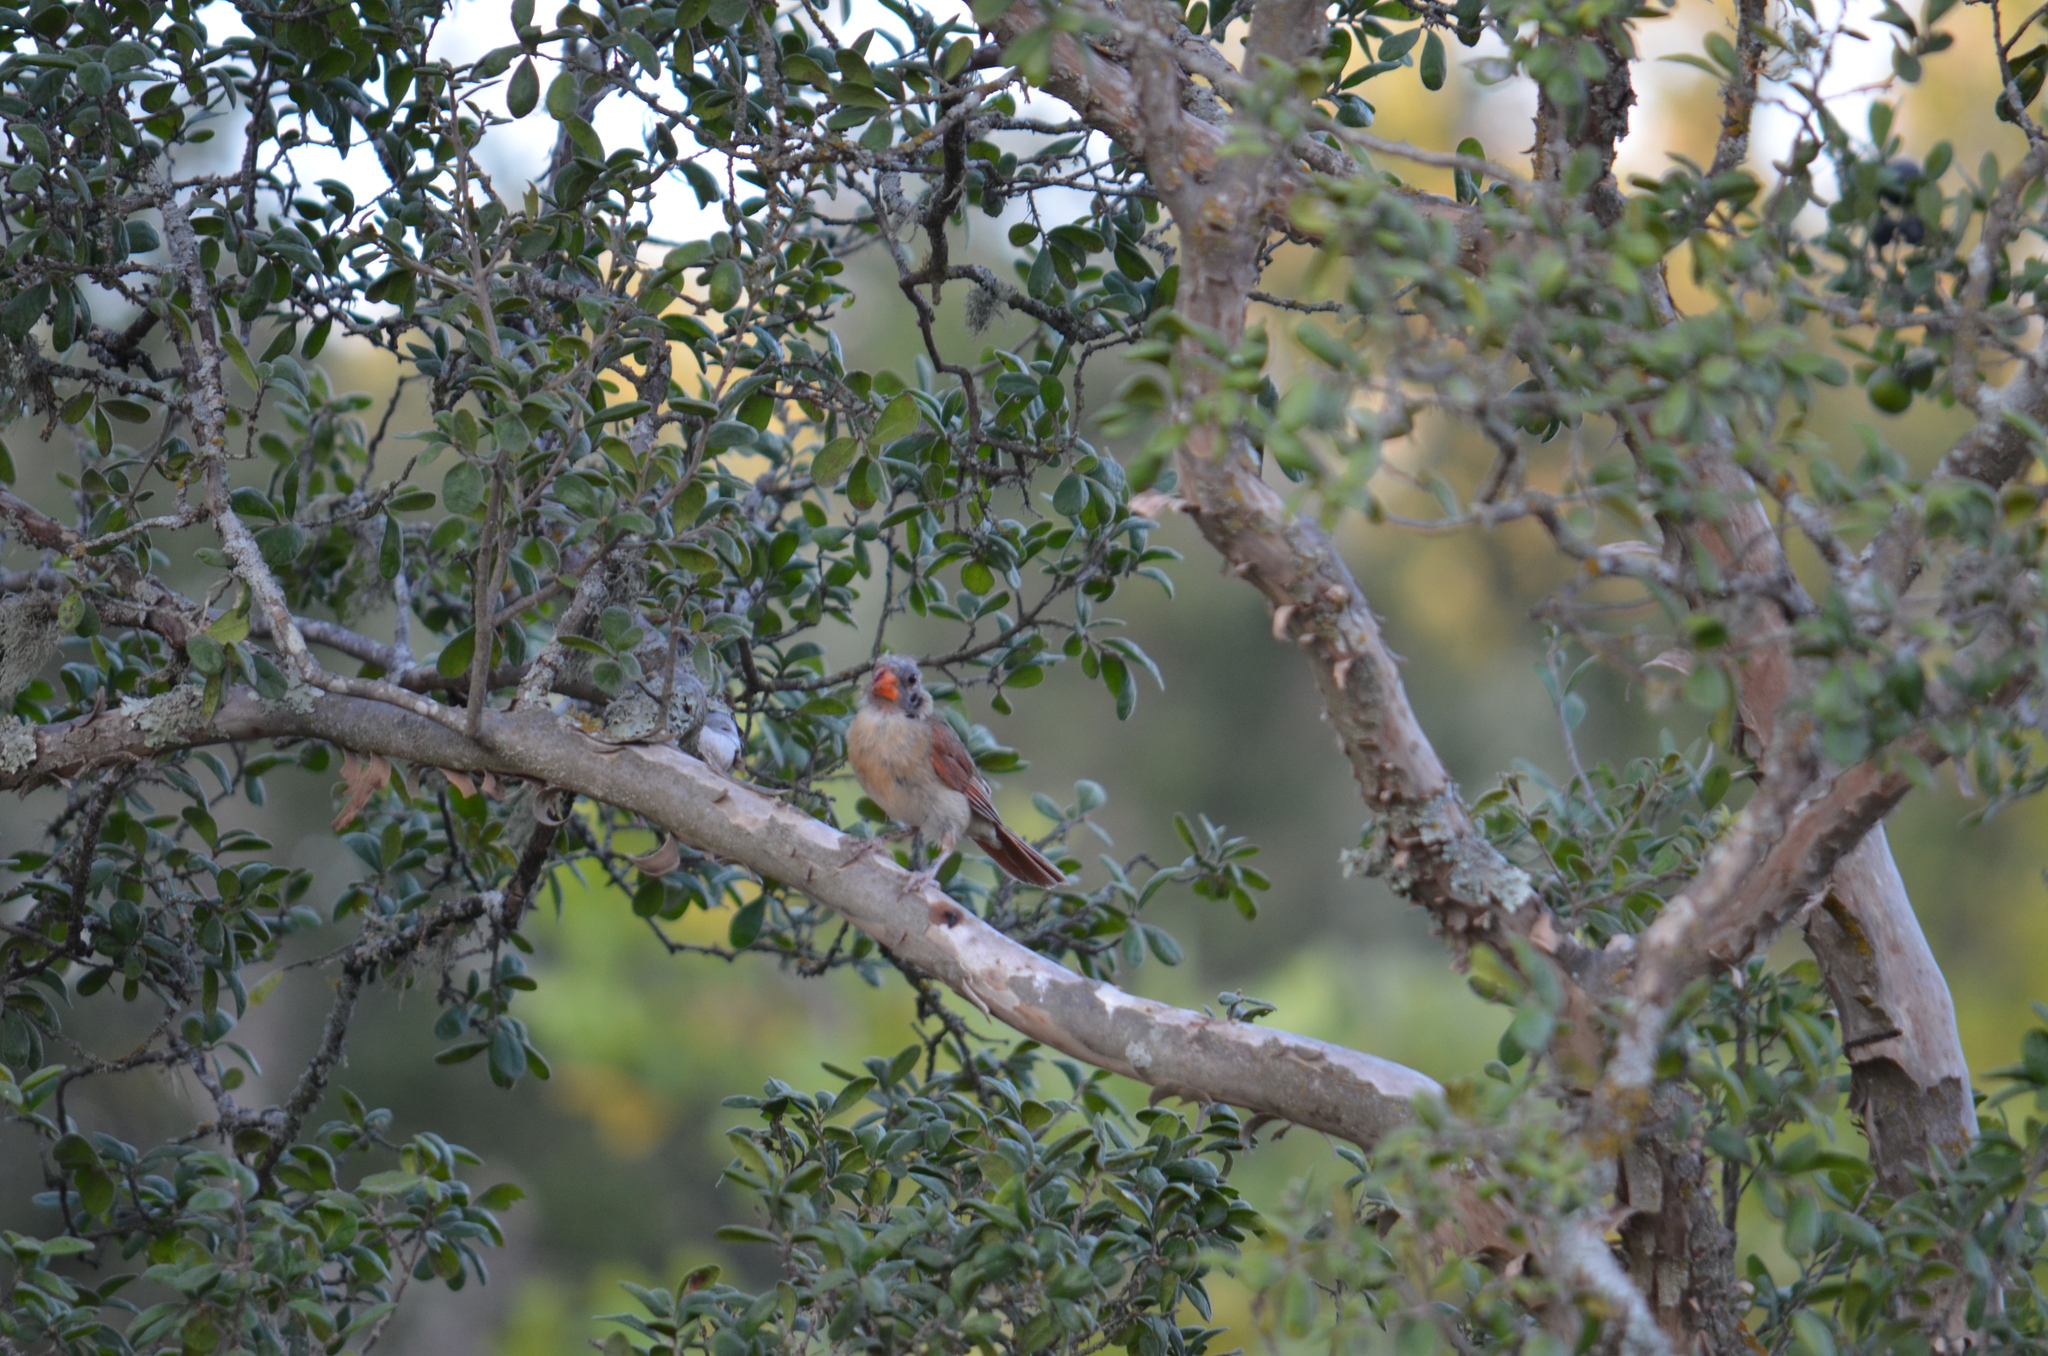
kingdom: Animalia
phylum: Chordata
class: Aves
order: Passeriformes
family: Cardinalidae
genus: Cardinalis
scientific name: Cardinalis cardinalis
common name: Northern cardinal
